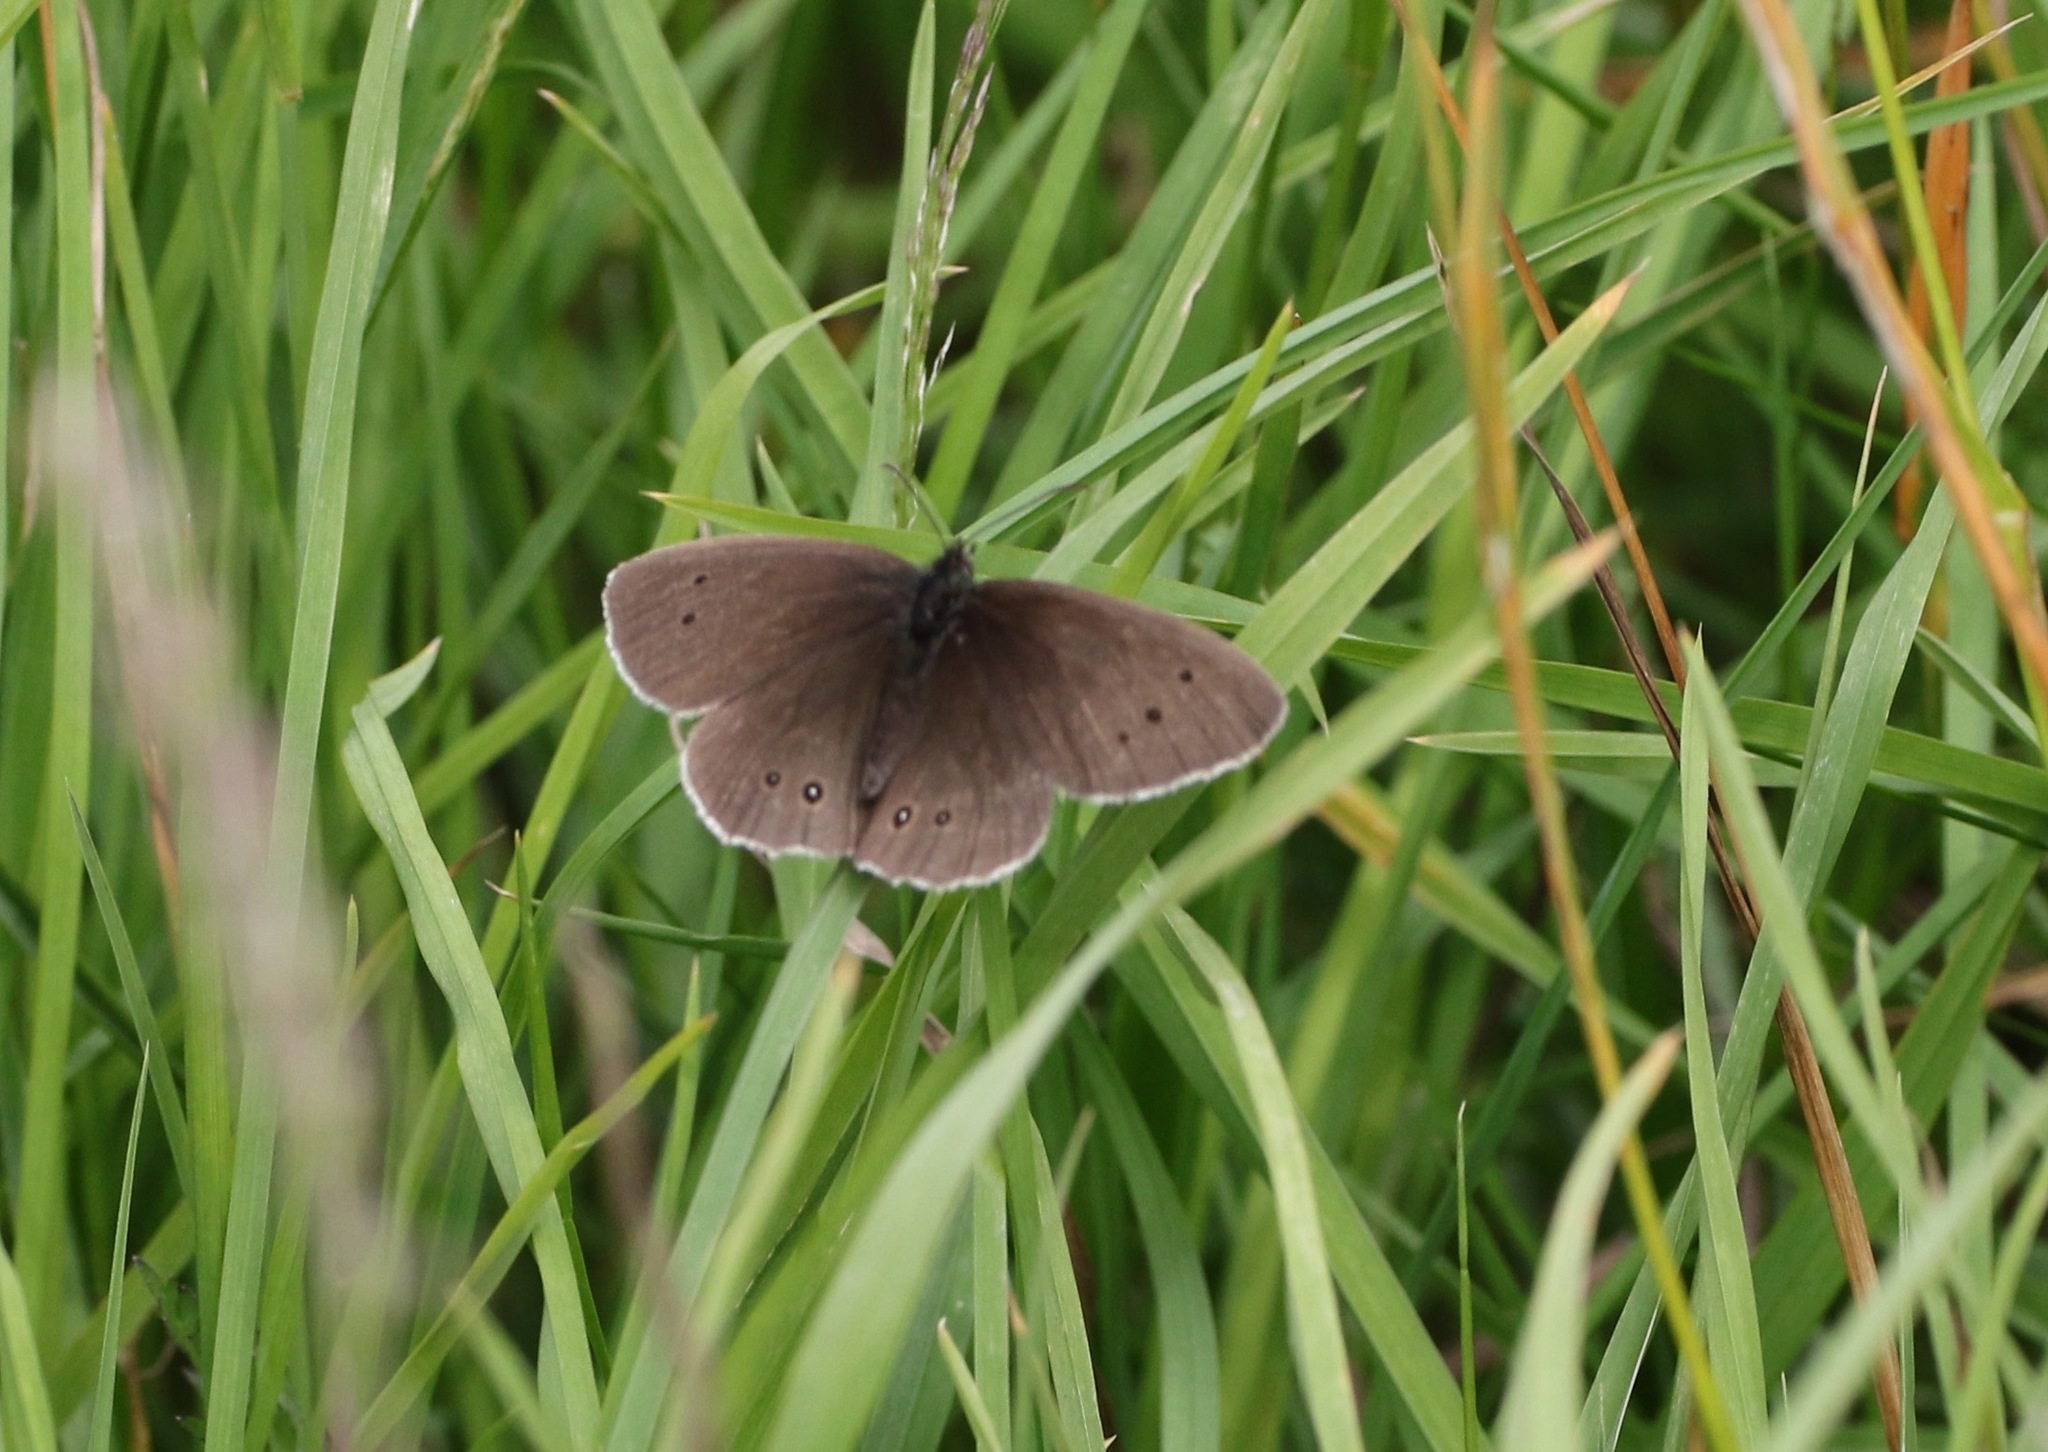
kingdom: Animalia
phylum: Arthropoda
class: Insecta
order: Lepidoptera
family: Nymphalidae
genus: Aphantopus
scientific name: Aphantopus hyperantus
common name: Ringlet
